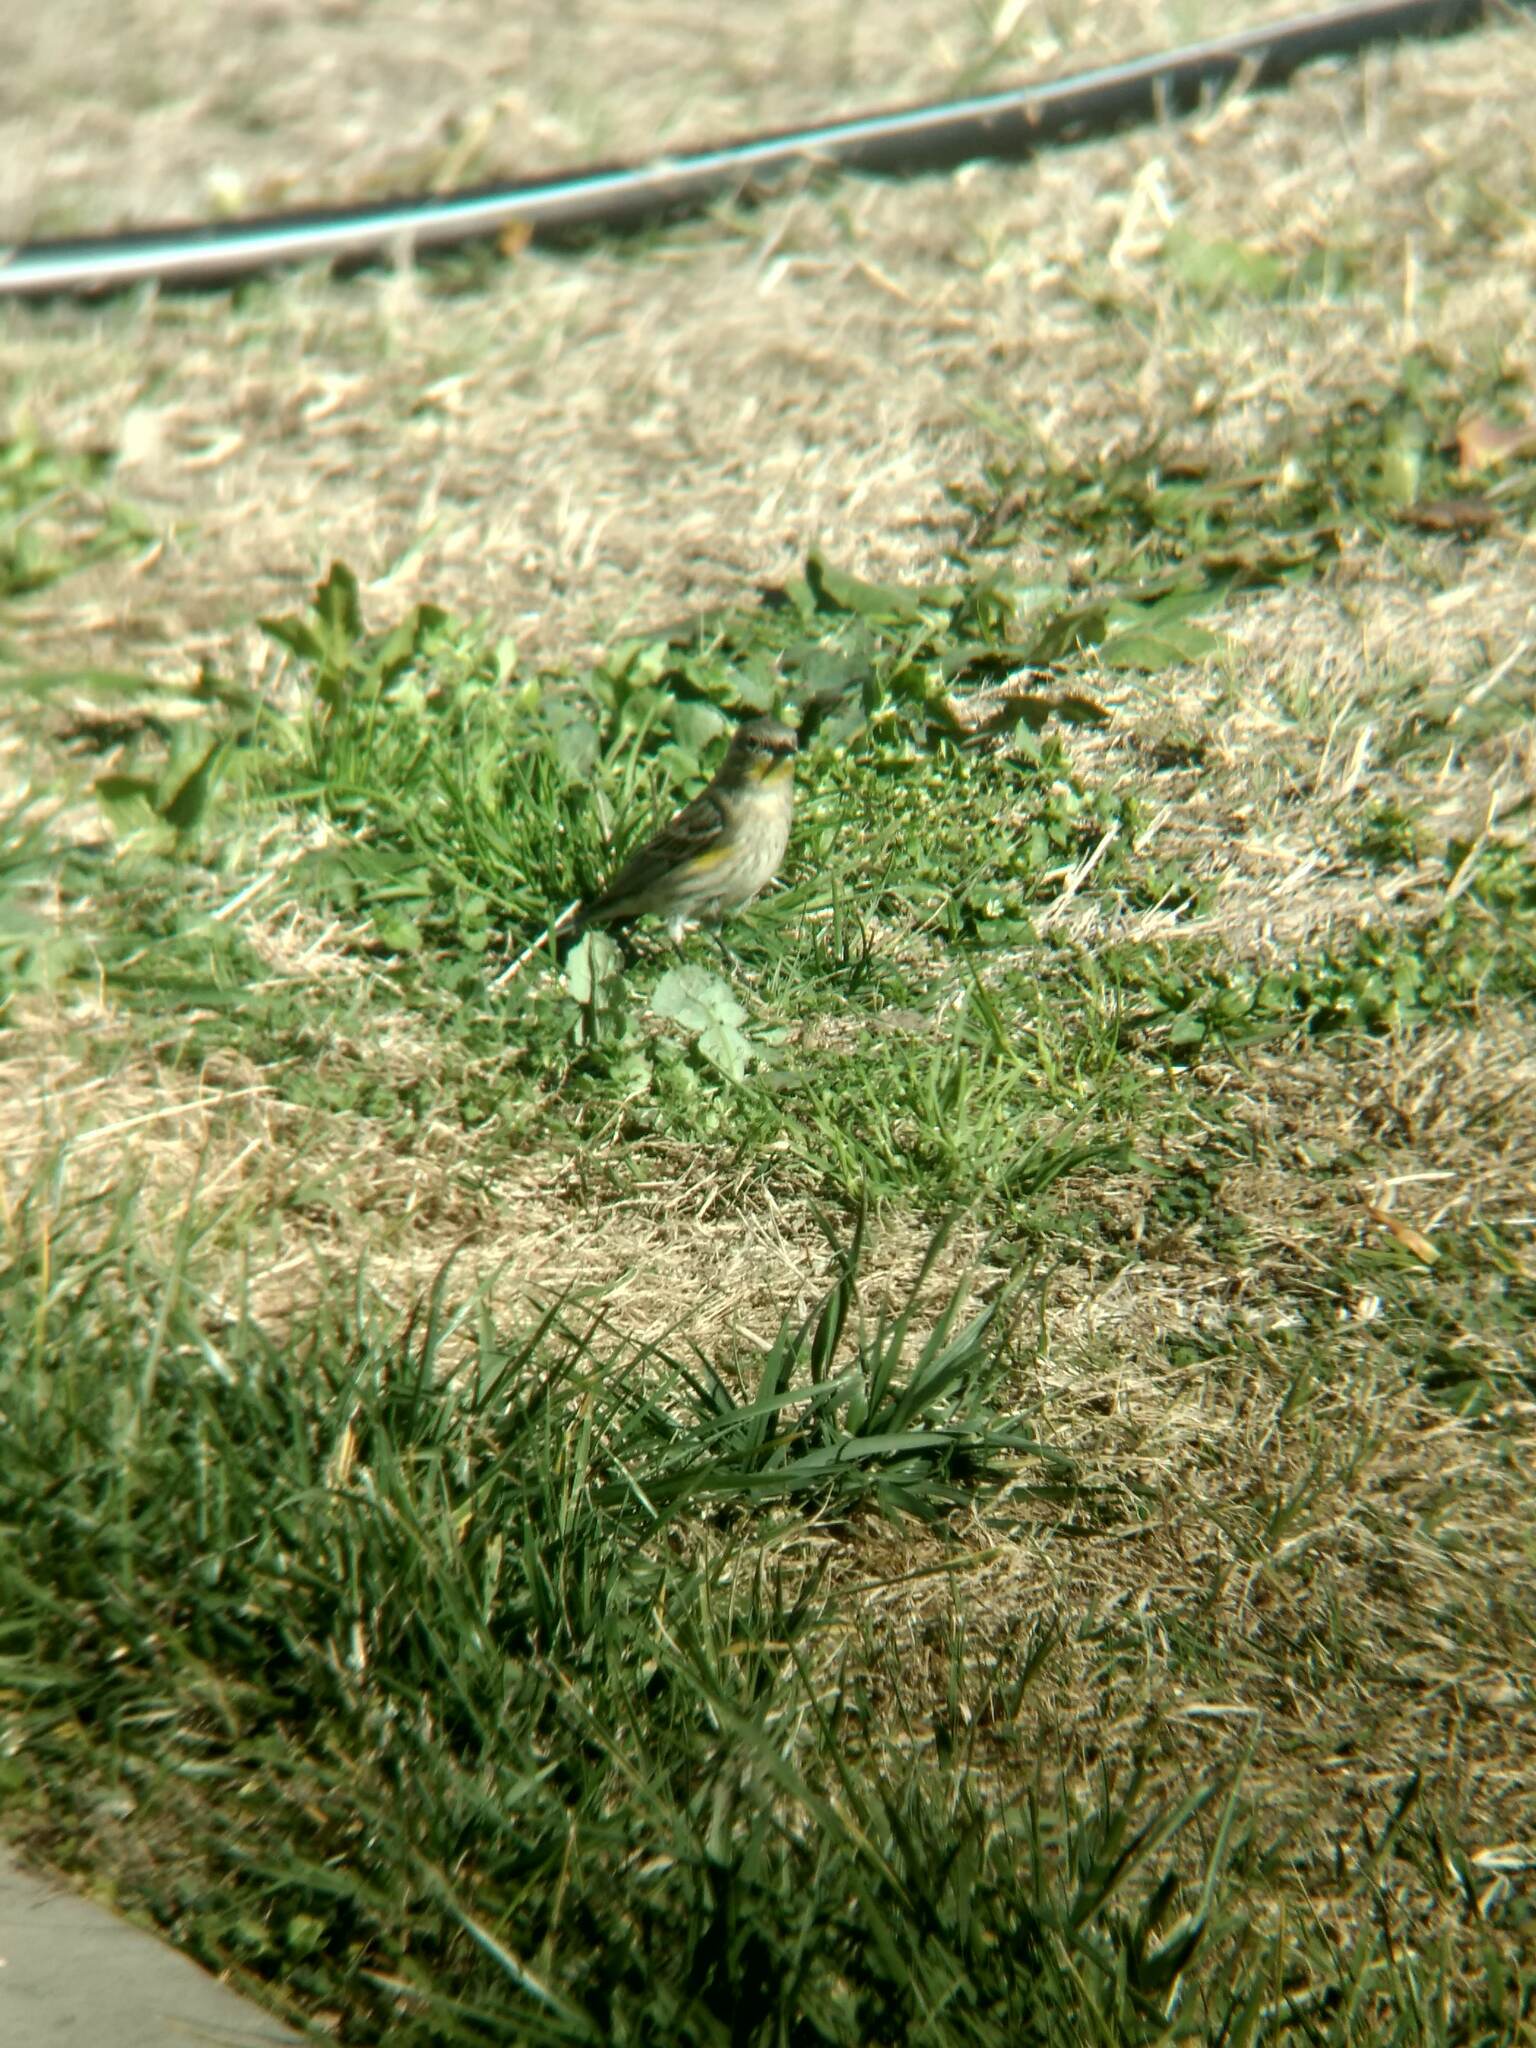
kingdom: Animalia
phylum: Chordata
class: Aves
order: Passeriformes
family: Parulidae
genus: Setophaga
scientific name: Setophaga coronata
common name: Myrtle warbler
